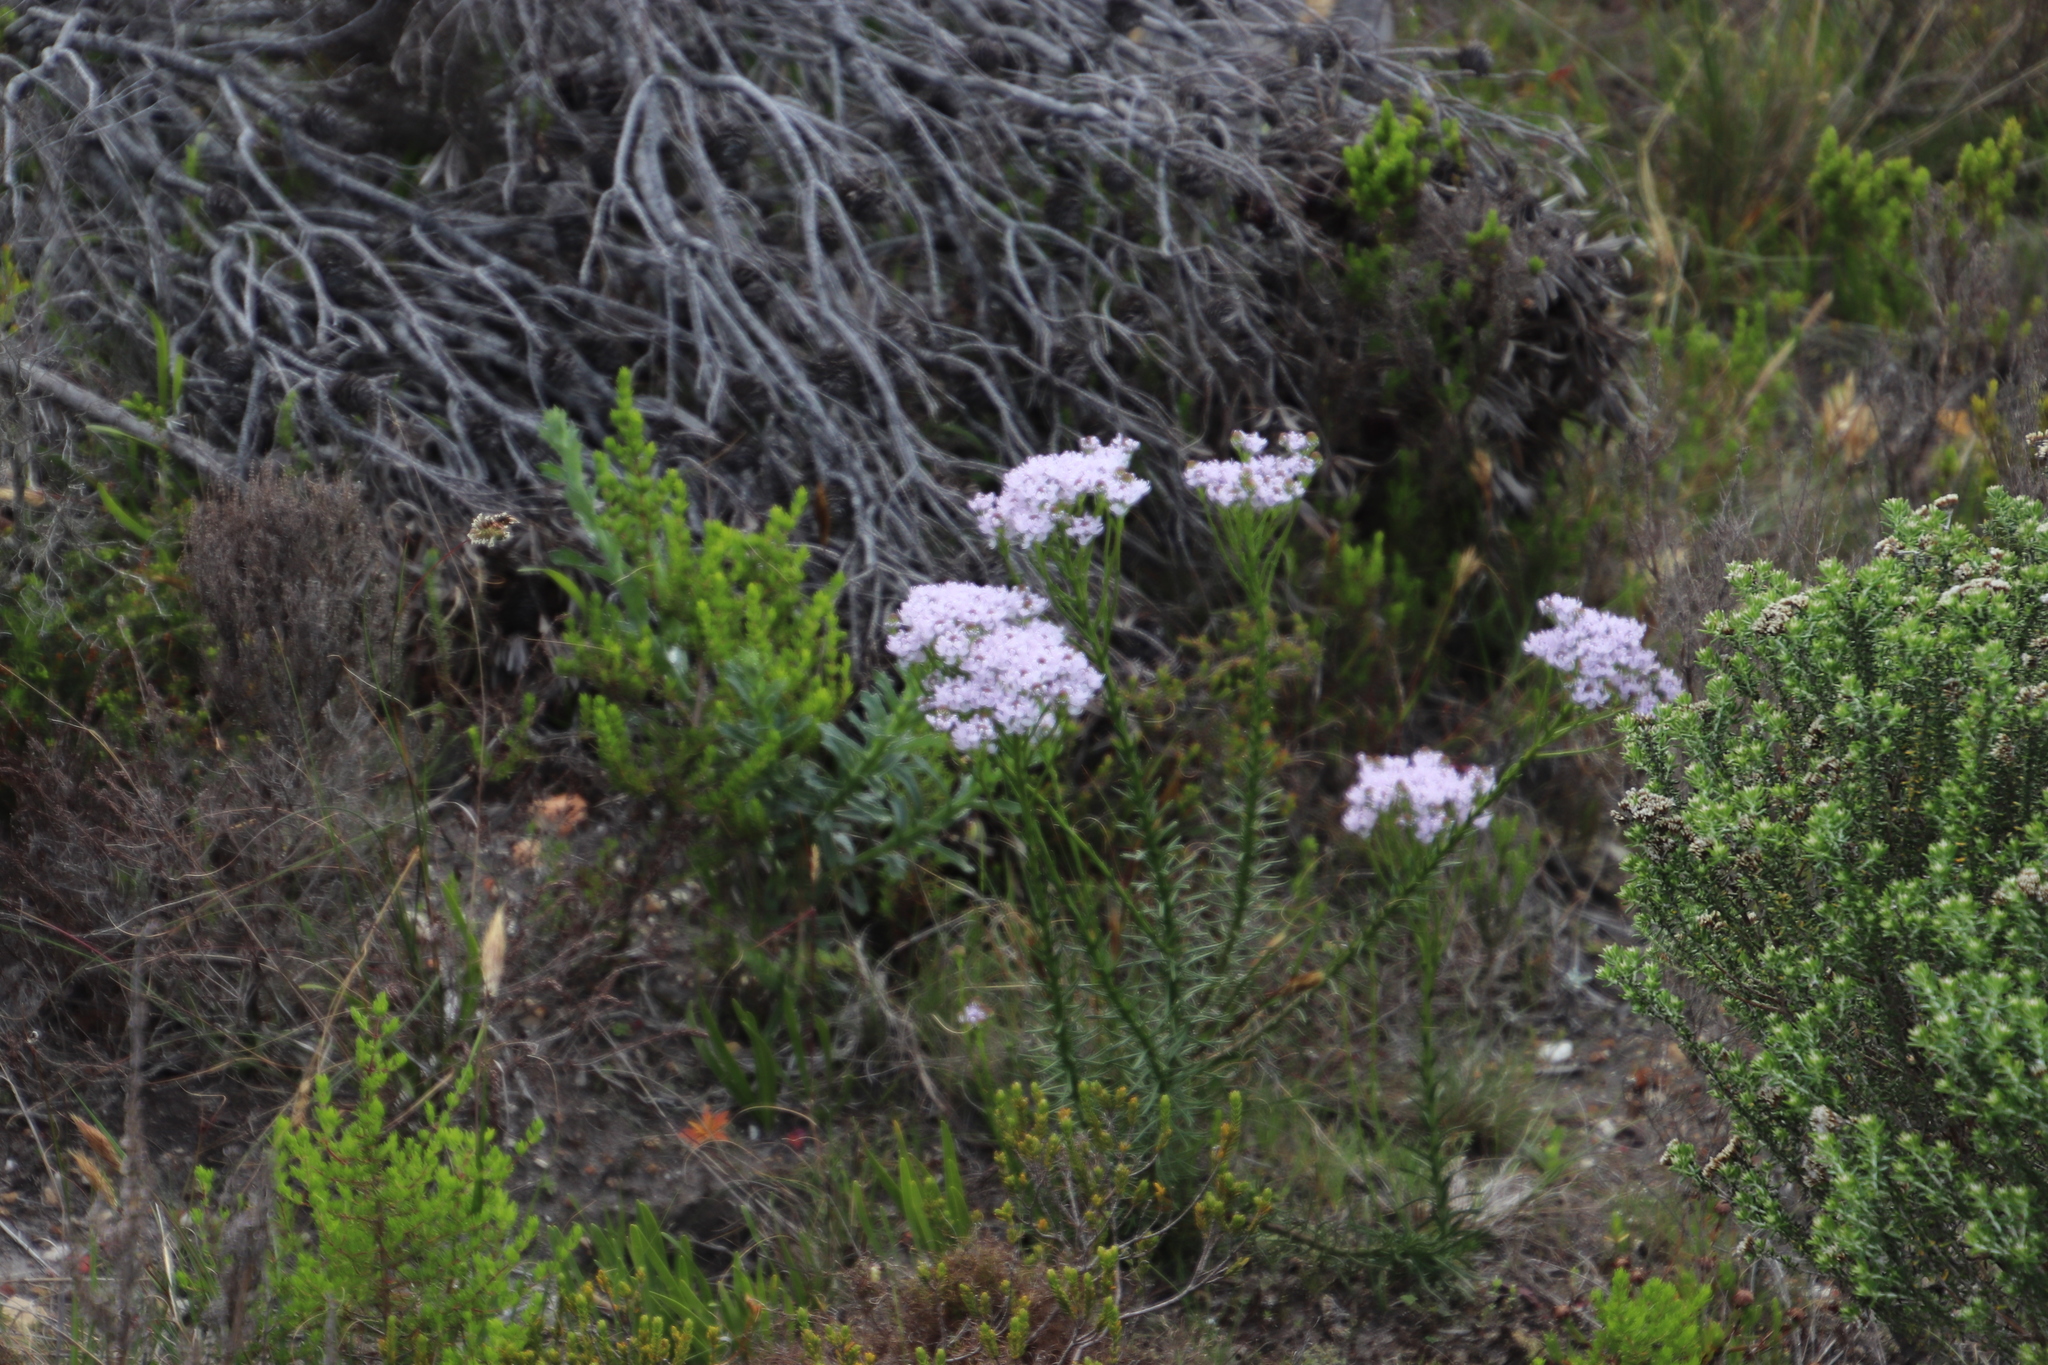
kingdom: Plantae
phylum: Tracheophyta
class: Magnoliopsida
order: Lamiales
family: Scrophulariaceae
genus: Pseudoselago
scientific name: Pseudoselago spuria
